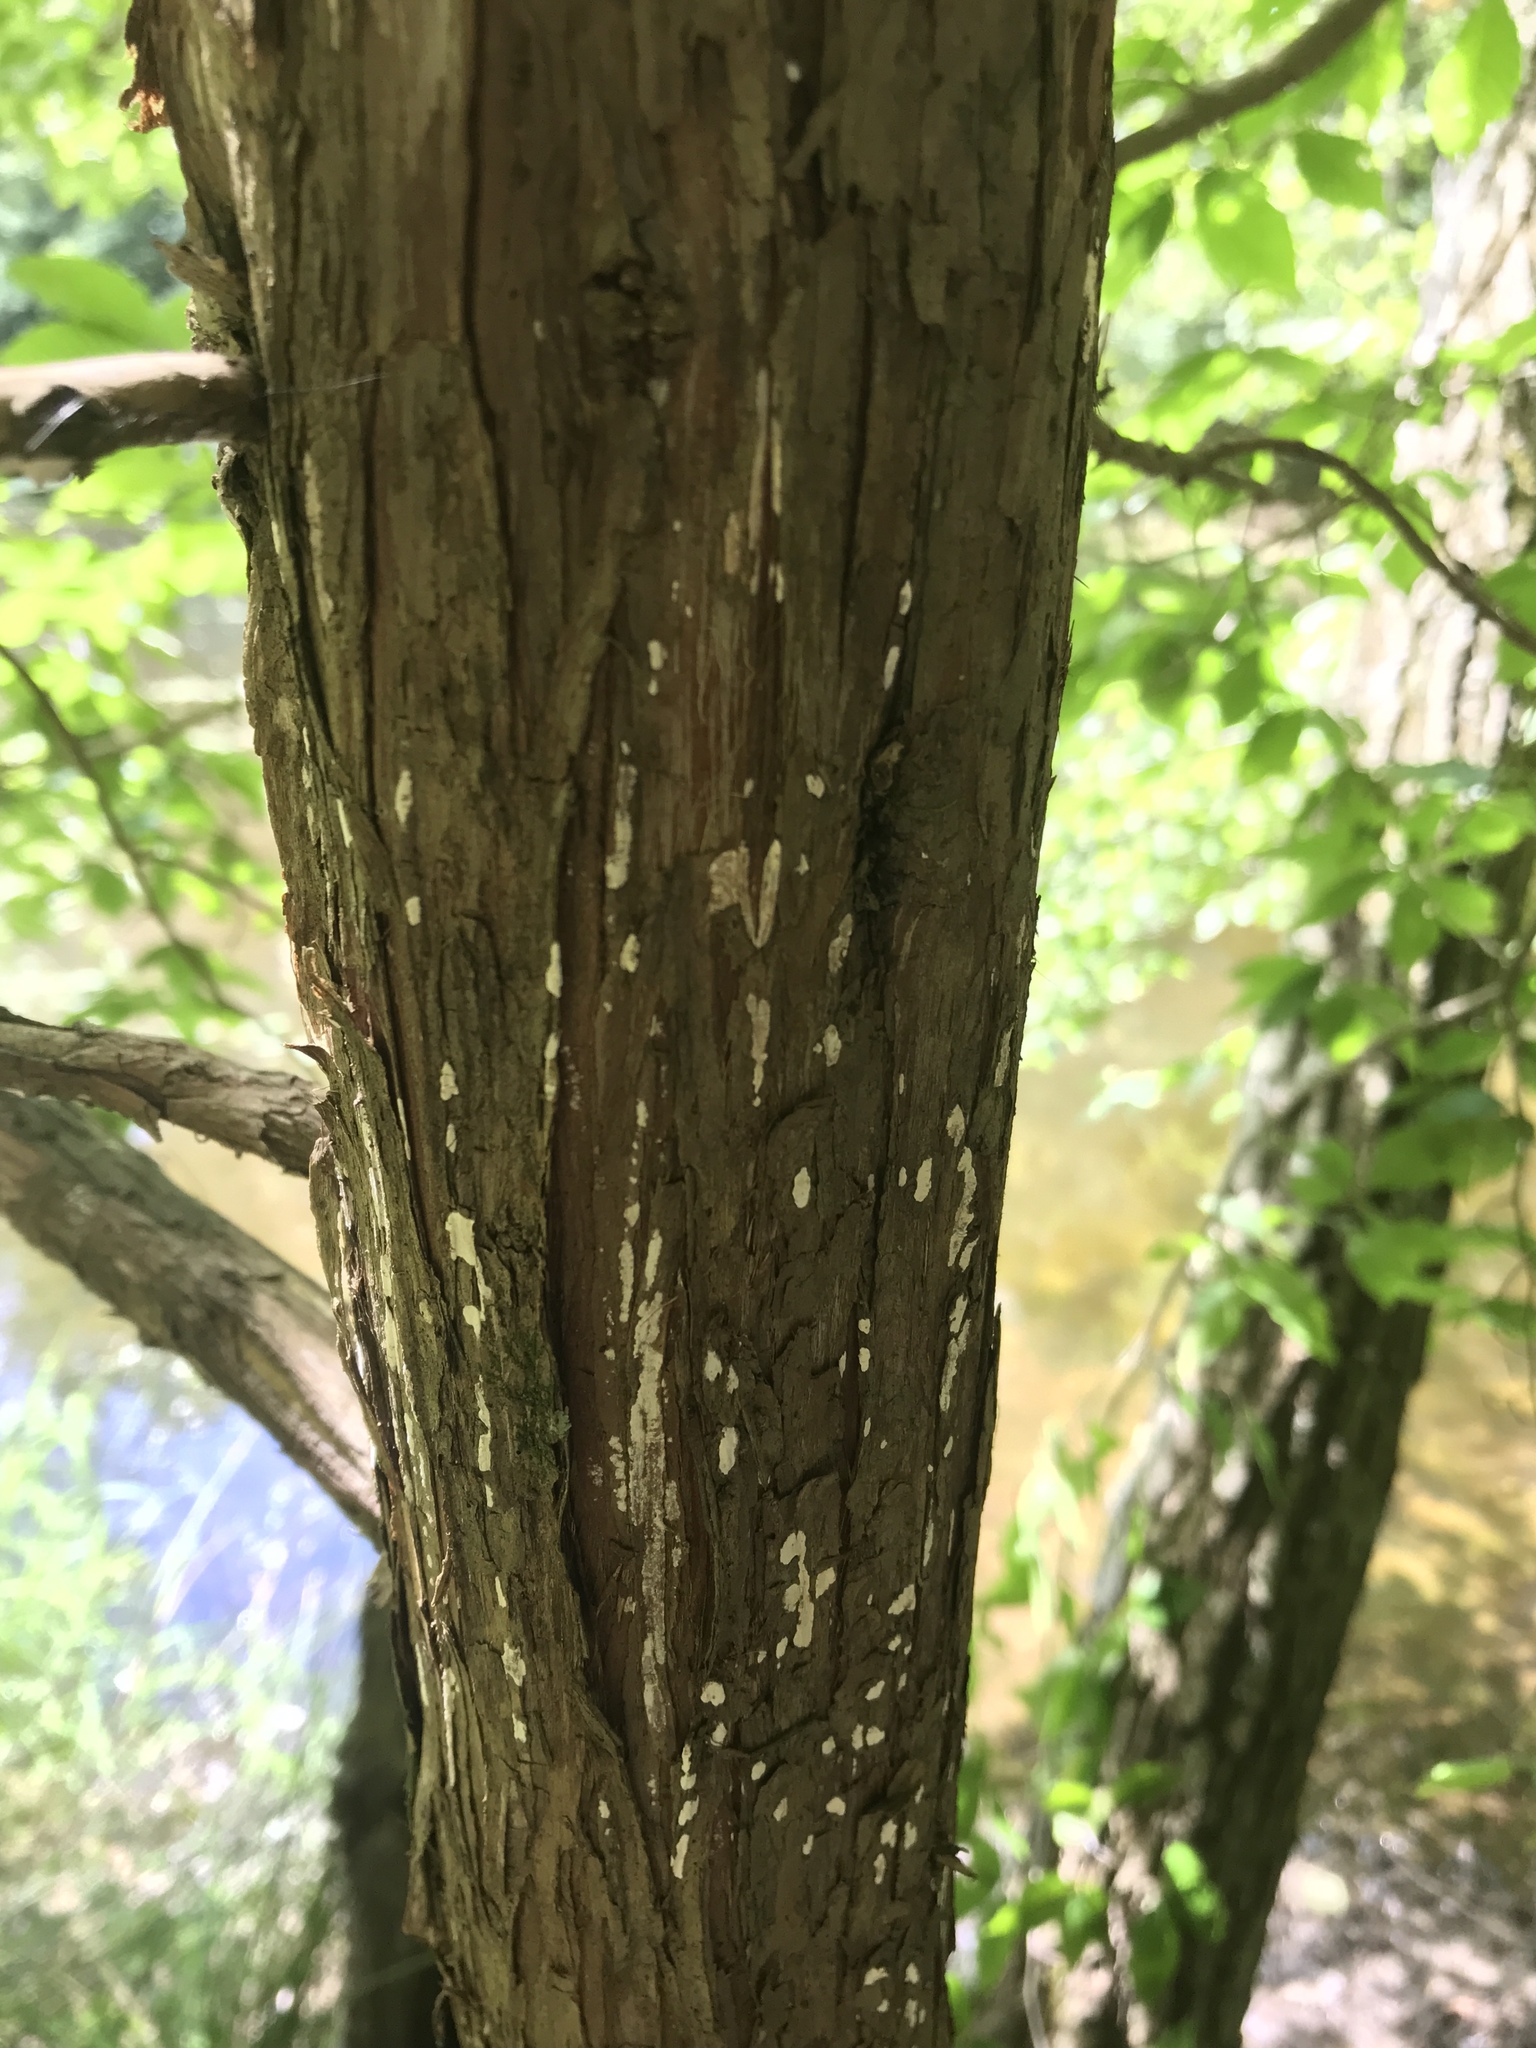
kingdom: Fungi
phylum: Basidiomycota
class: Agaricomycetes
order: Agaricales
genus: Dendrothele
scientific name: Dendrothele nivosa
